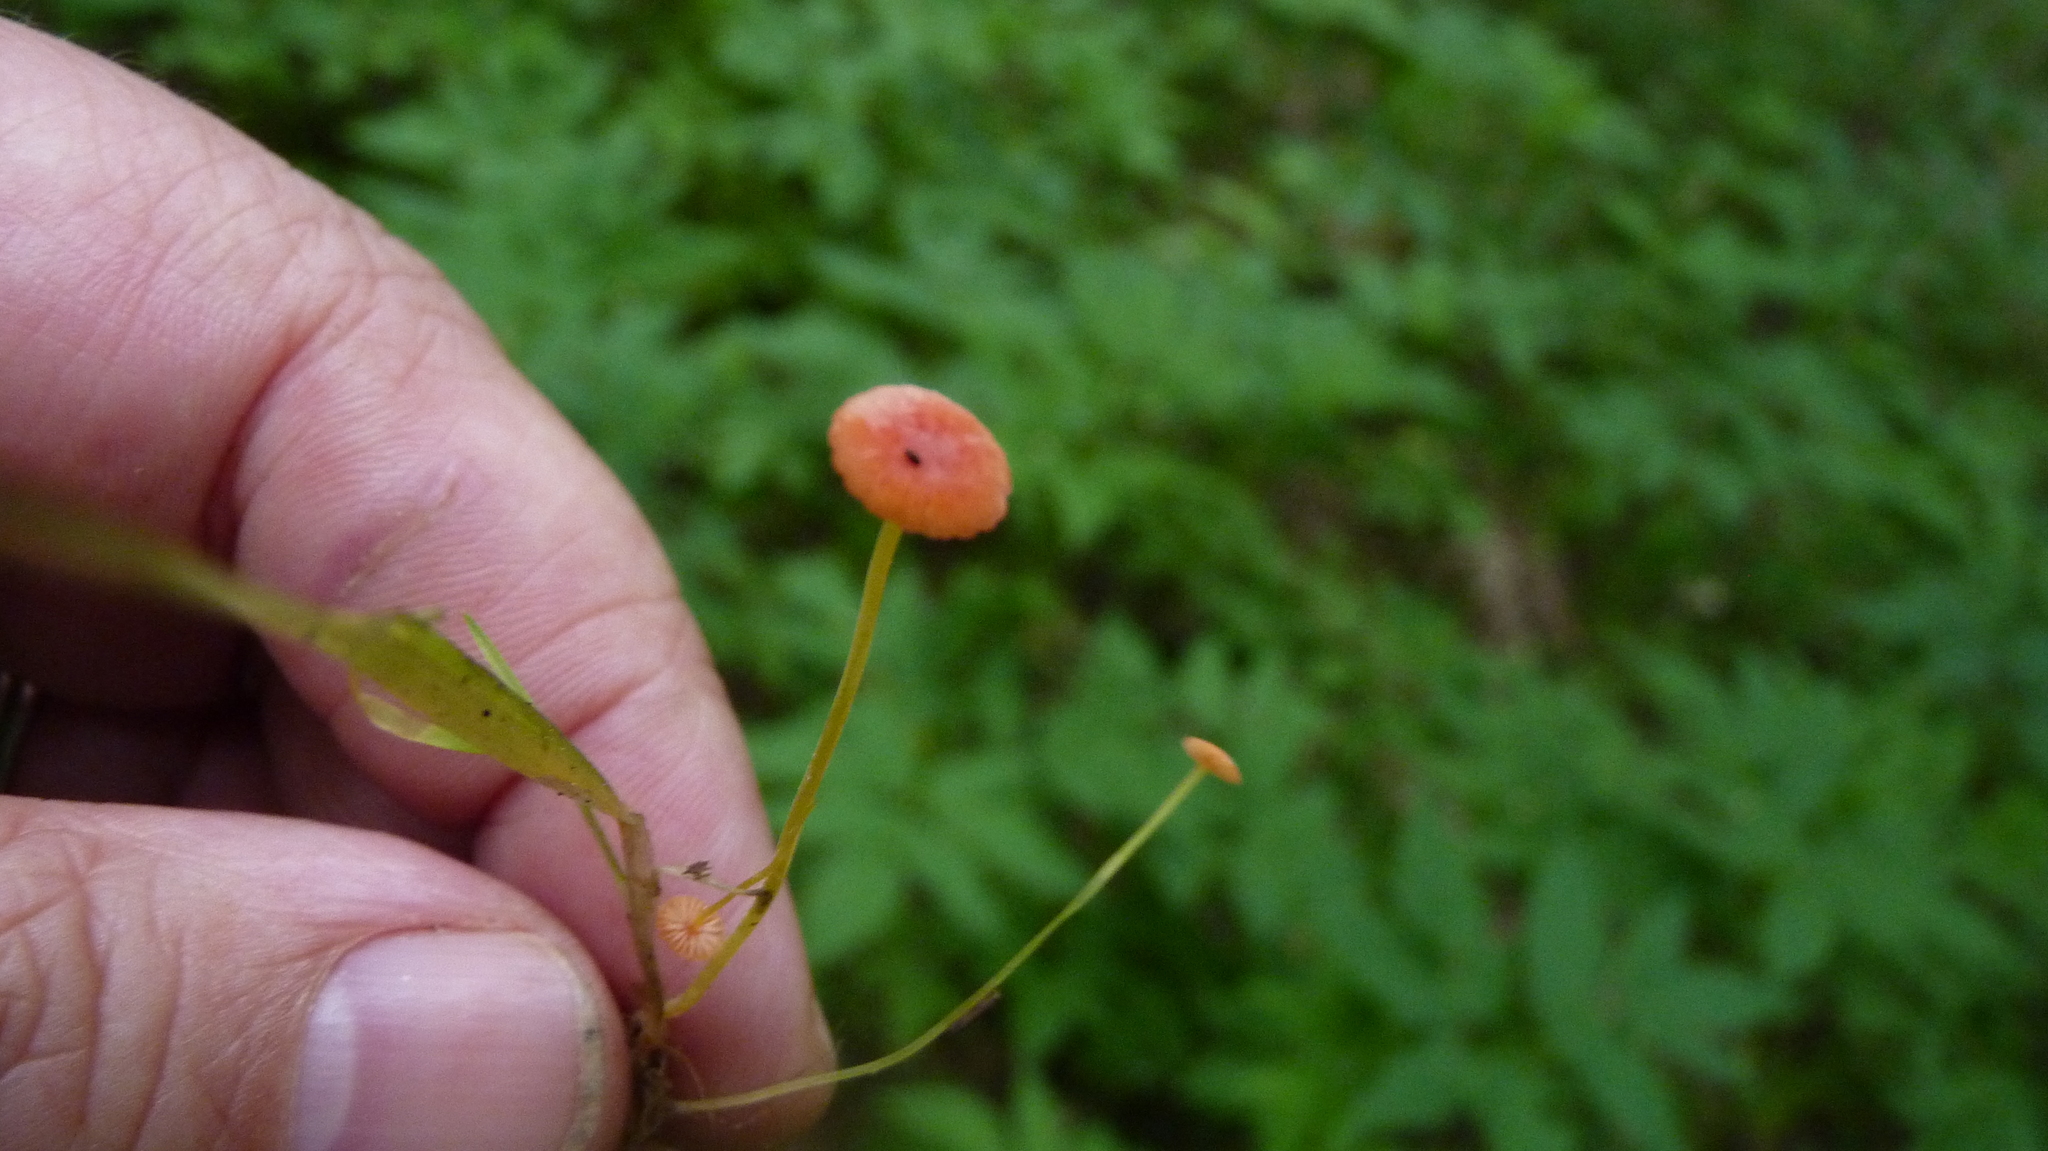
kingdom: Fungi
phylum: Basidiomycota
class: Agaricomycetes
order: Agaricales
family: Mycenaceae
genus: Mycena
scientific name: Mycena acicula
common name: Orange bonnet
